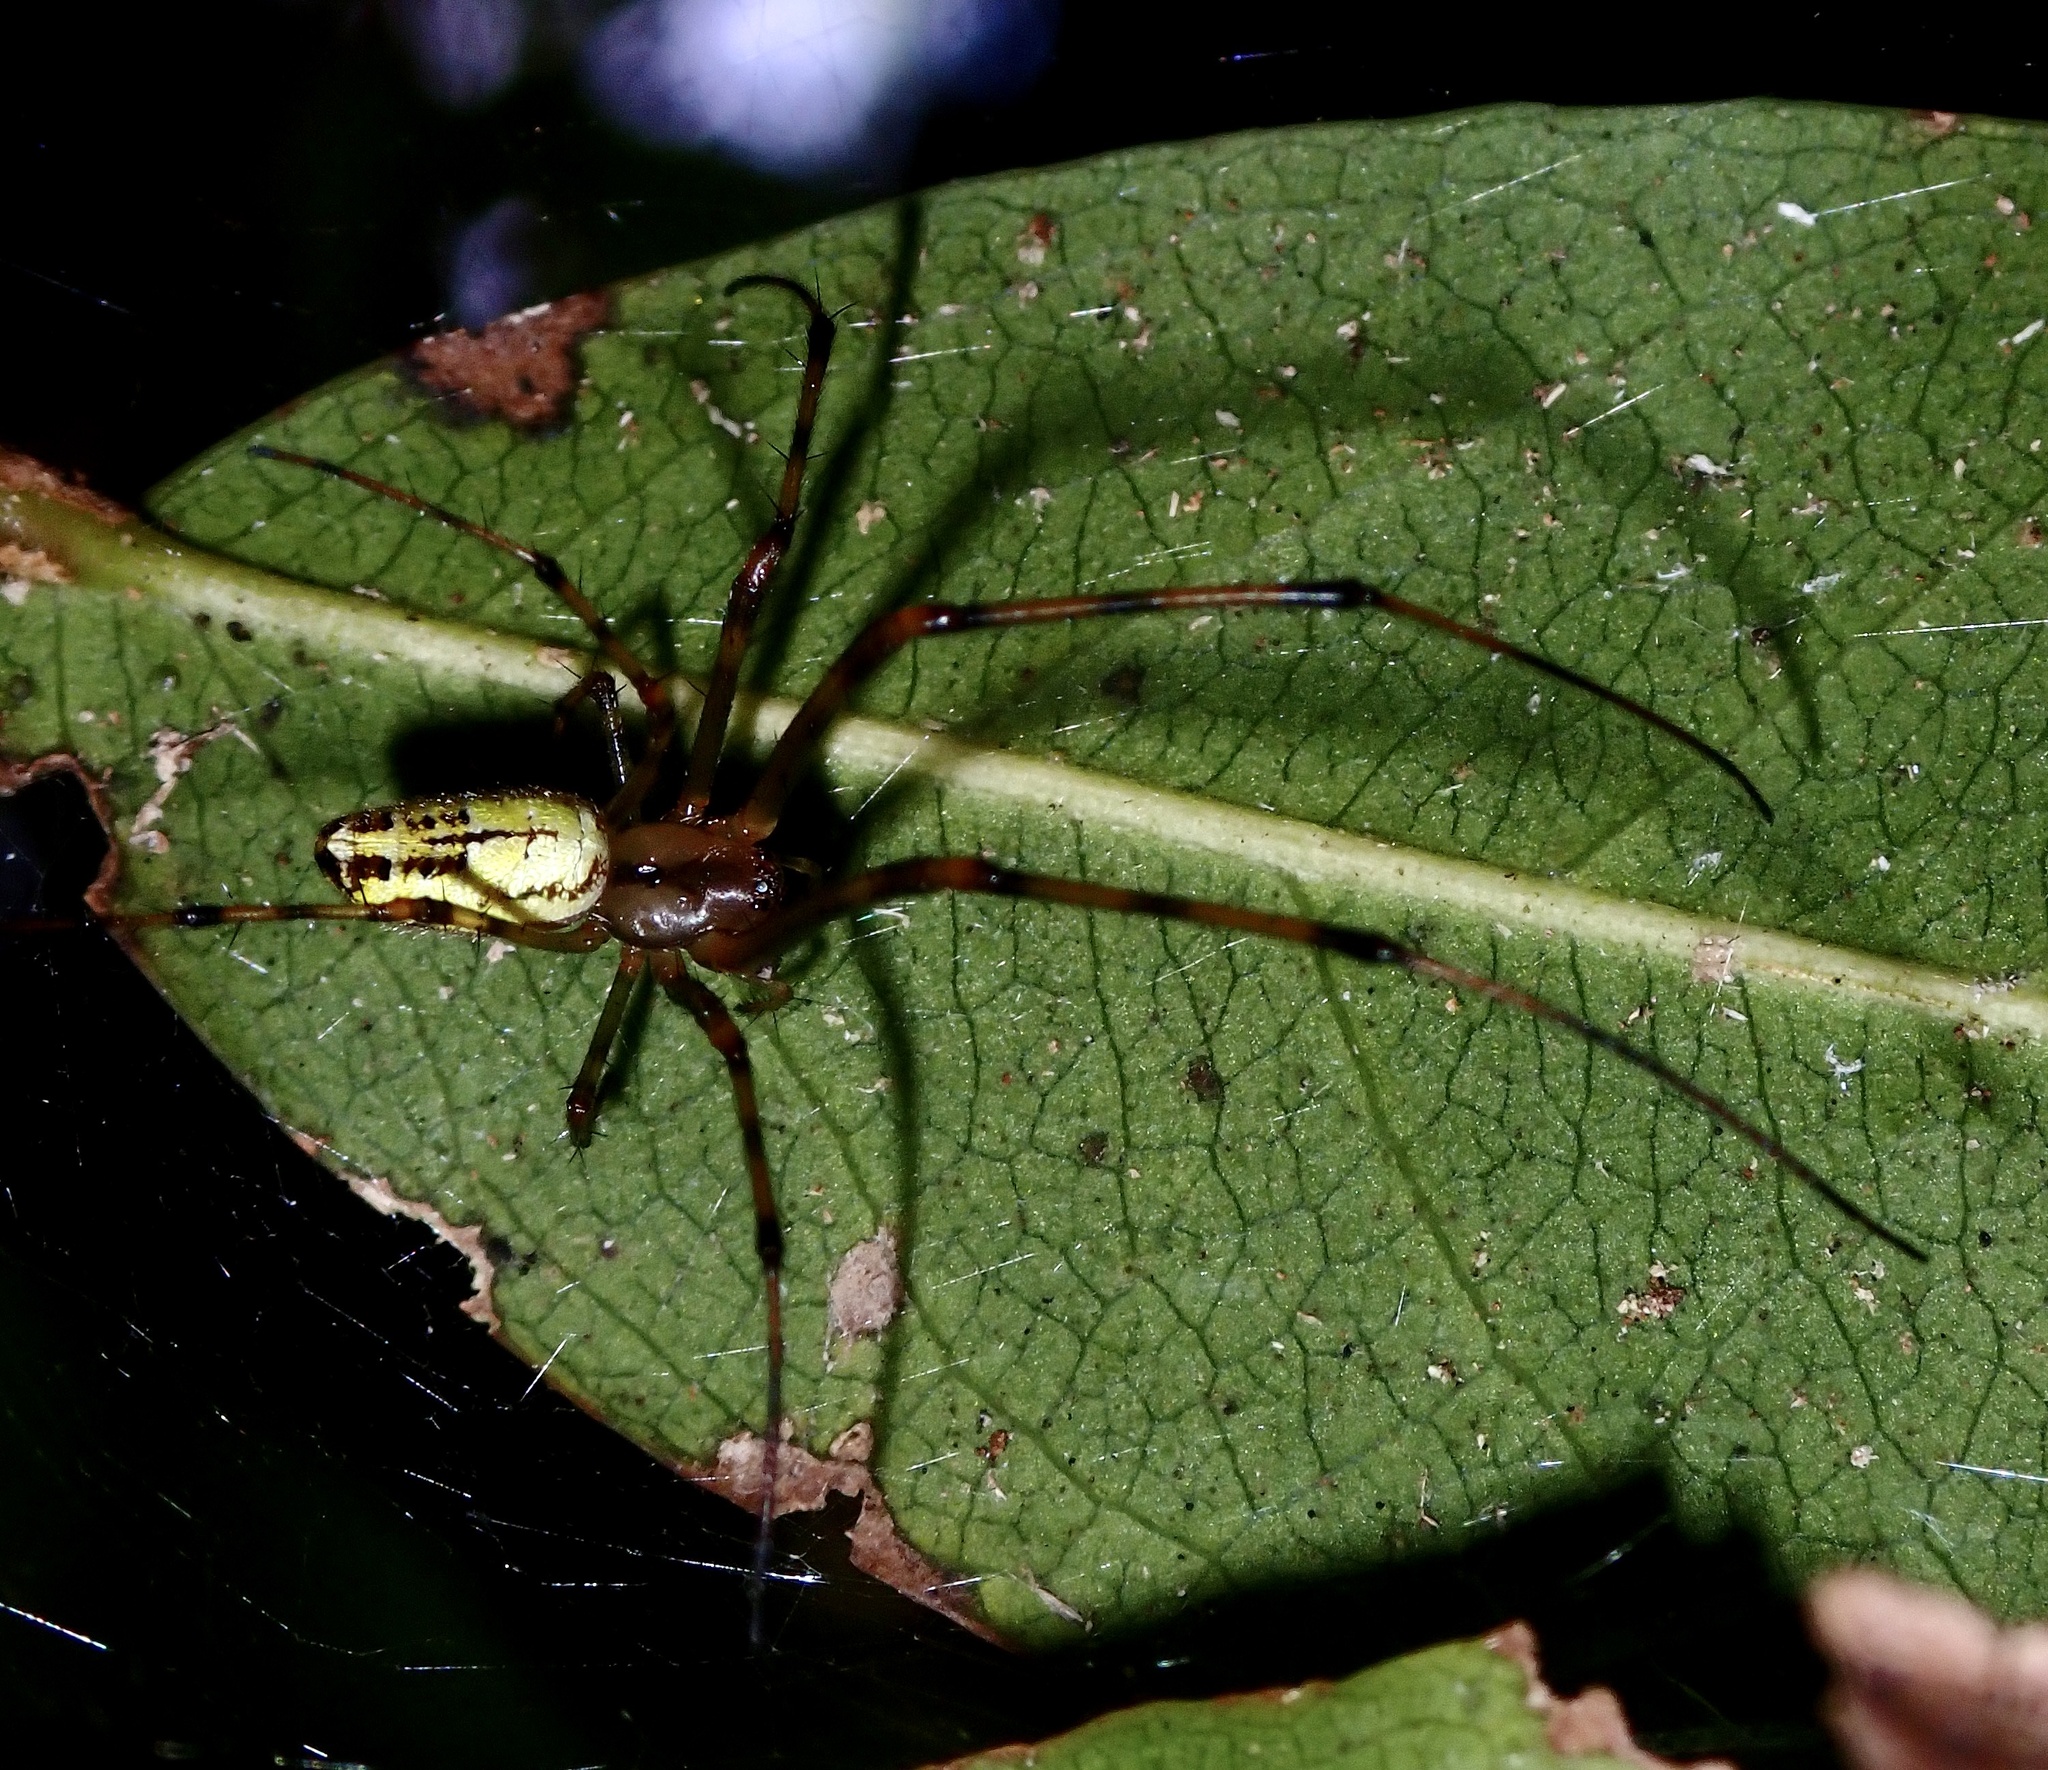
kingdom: Animalia
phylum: Arthropoda
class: Arachnida
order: Araneae
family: Tetragnathidae
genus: Tylorida
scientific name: Tylorida ventralis
